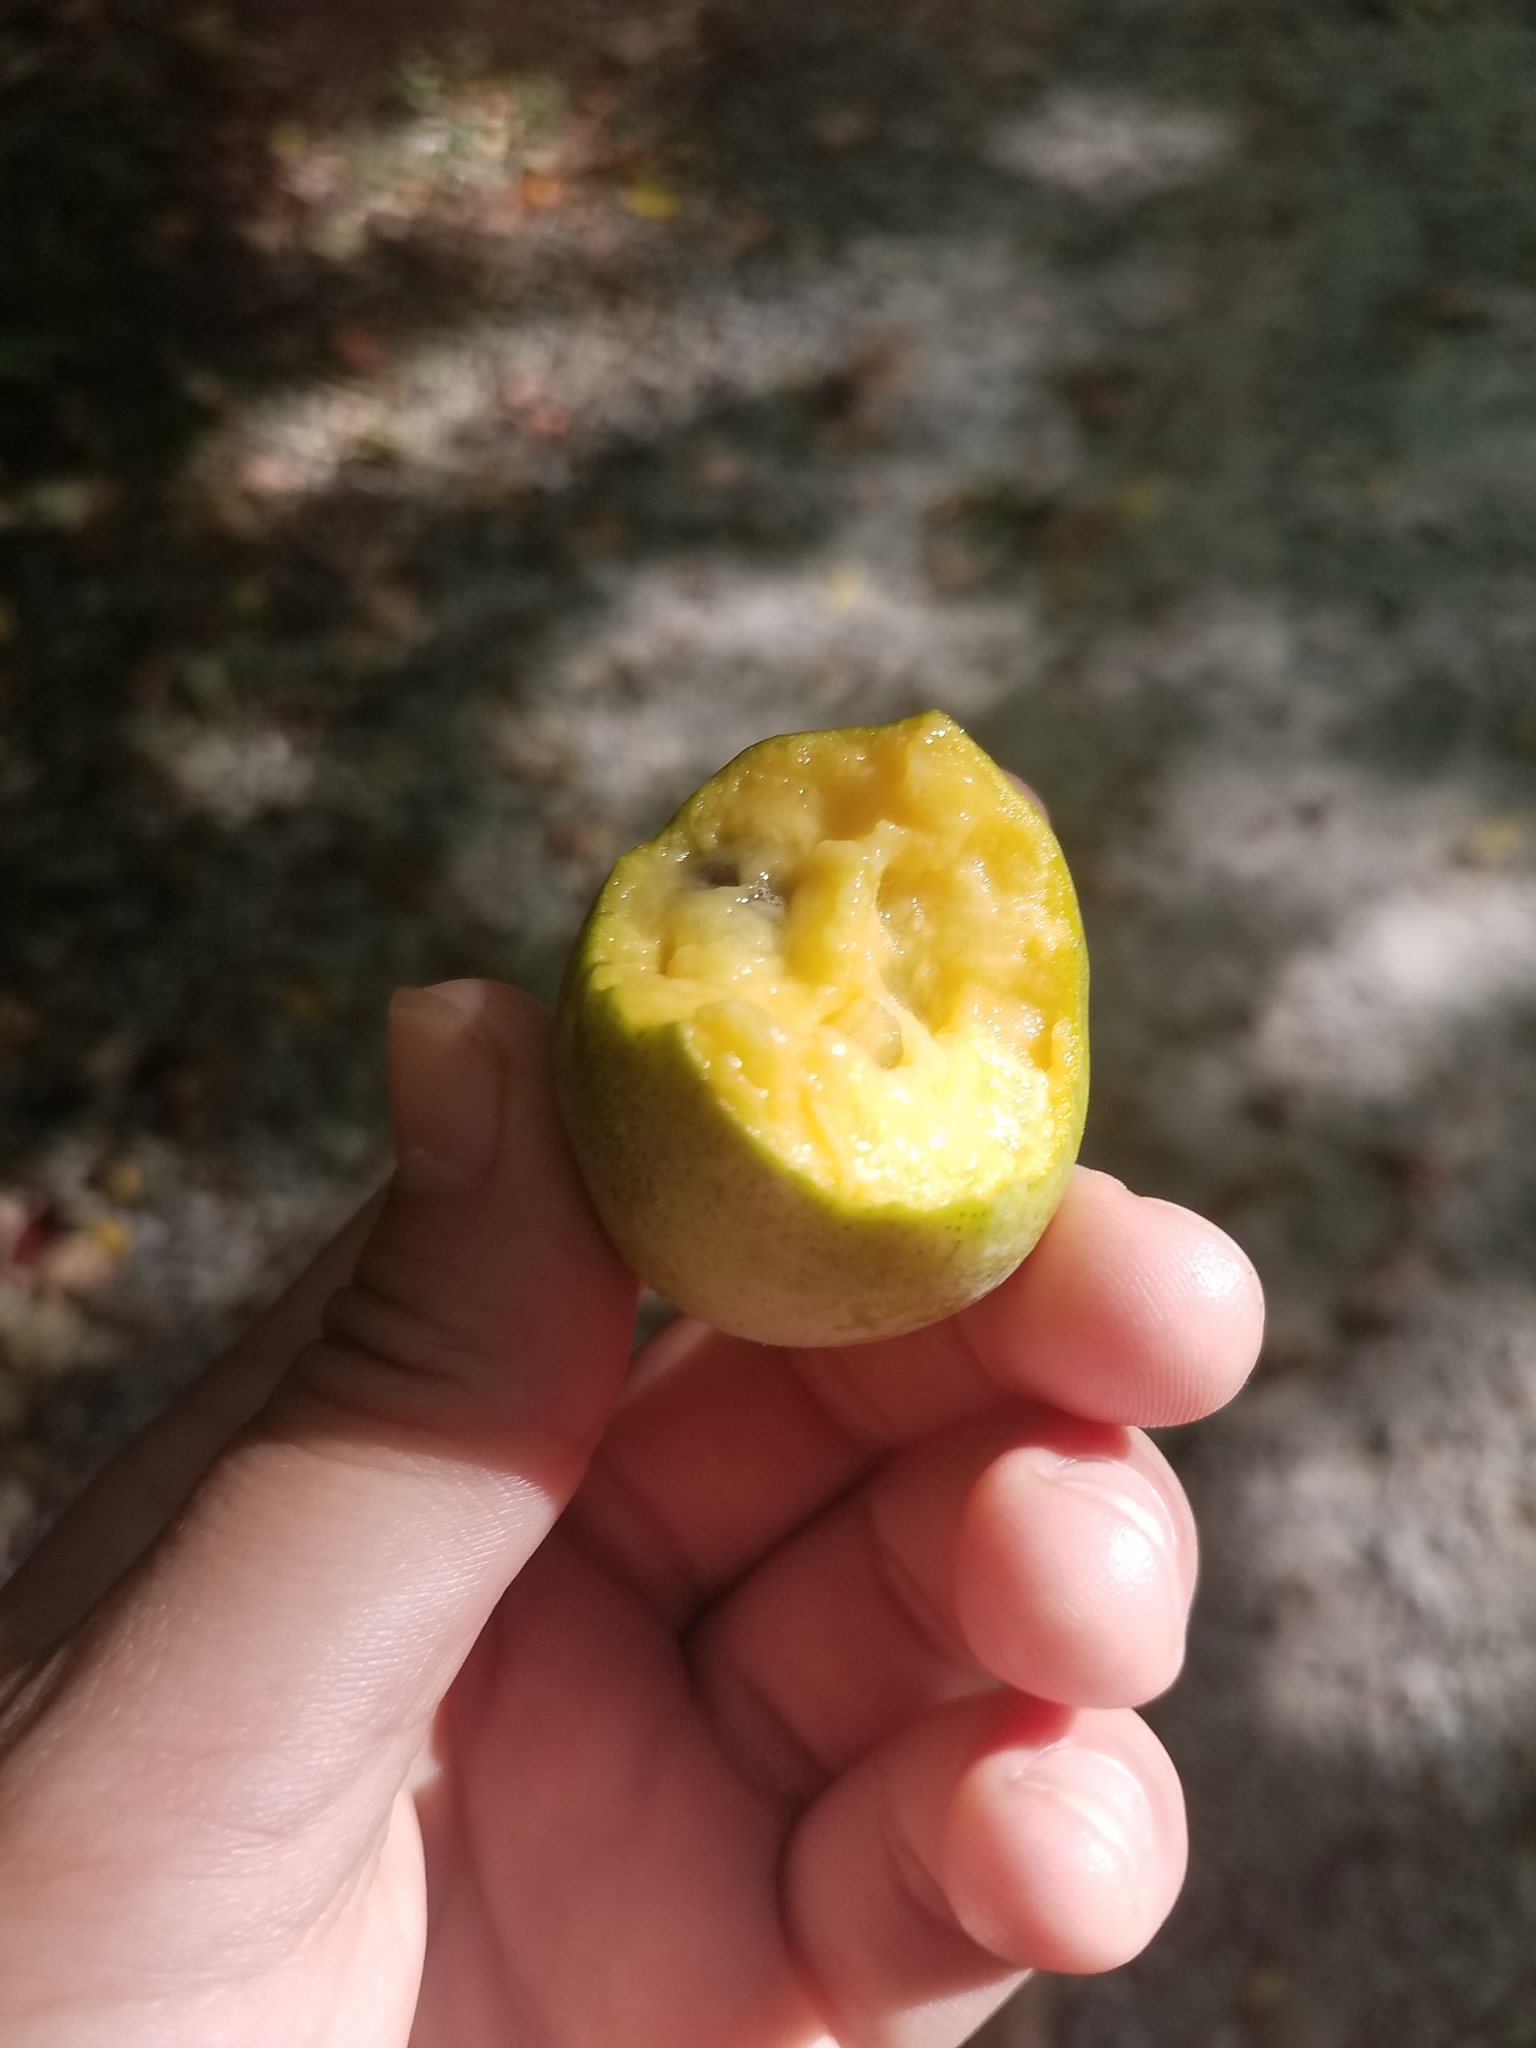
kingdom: Plantae
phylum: Tracheophyta
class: Magnoliopsida
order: Magnoliales
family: Annonaceae
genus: Asimina
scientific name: Asimina triloba
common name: Dog-banana
